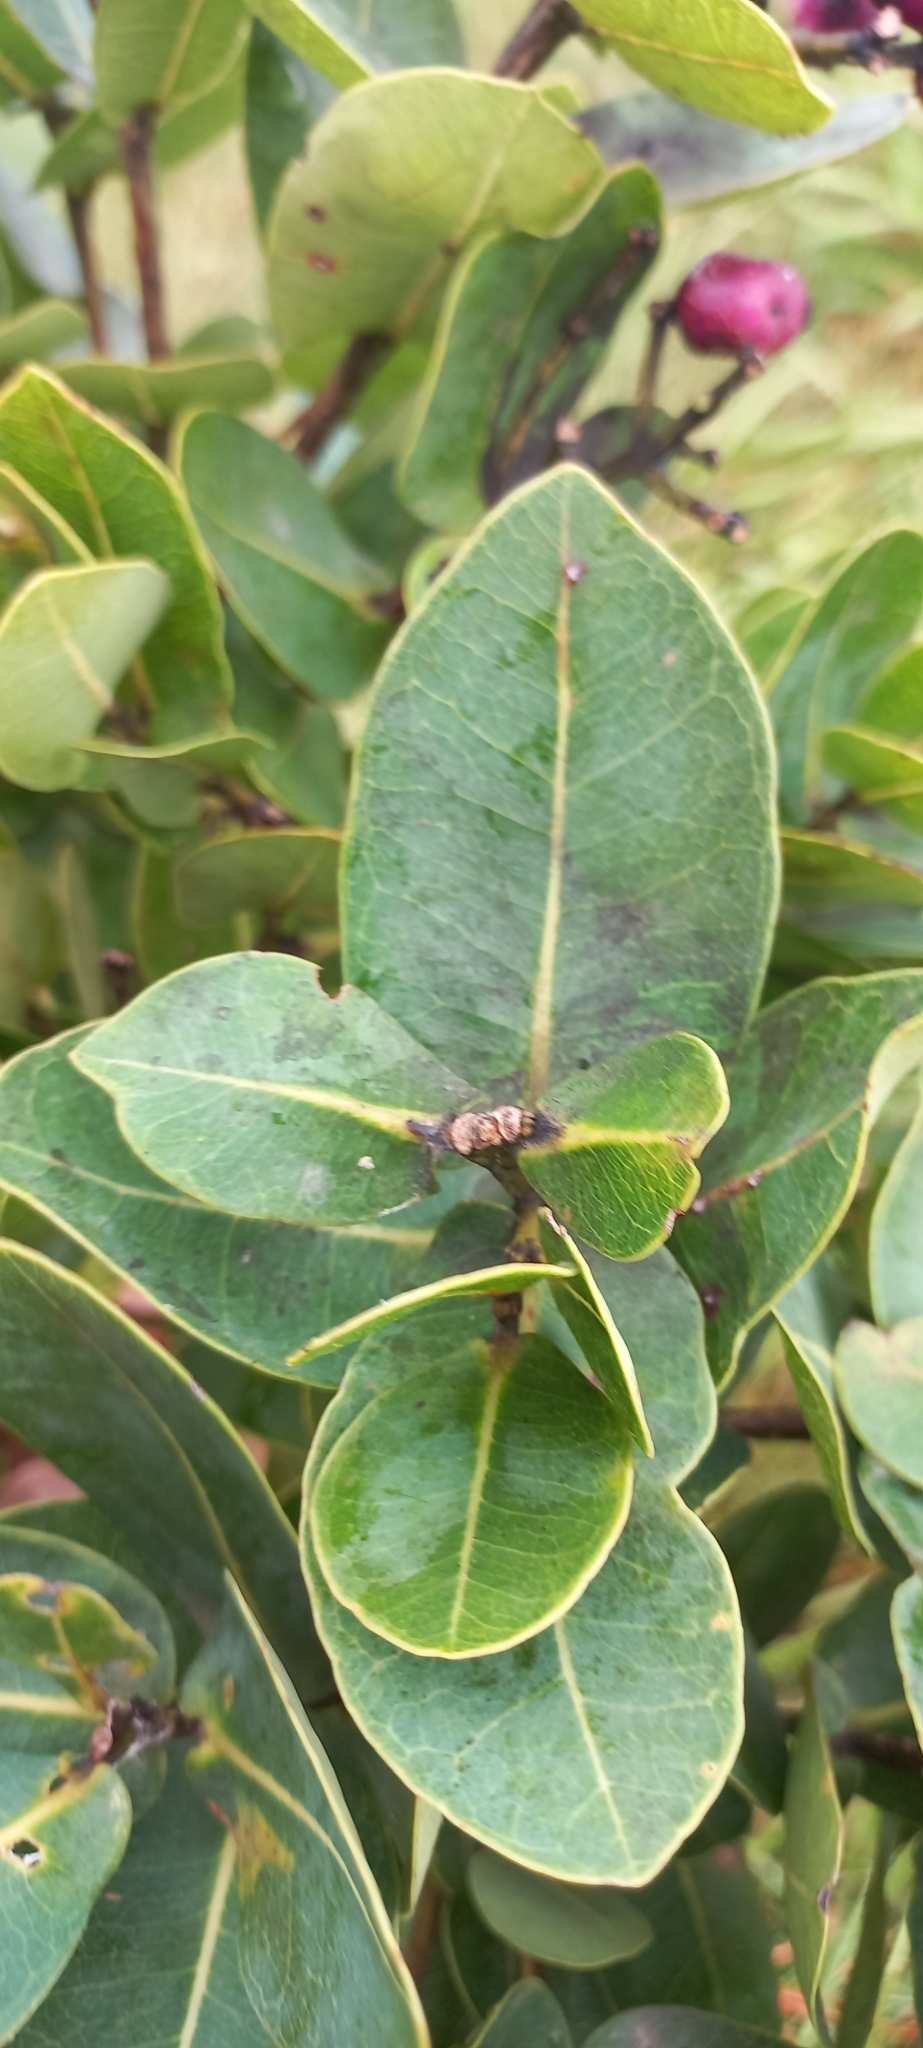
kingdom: Plantae
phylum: Tracheophyta
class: Magnoliopsida
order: Myrtales
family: Myrtaceae
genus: Syzygium
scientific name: Syzygium cordatum
